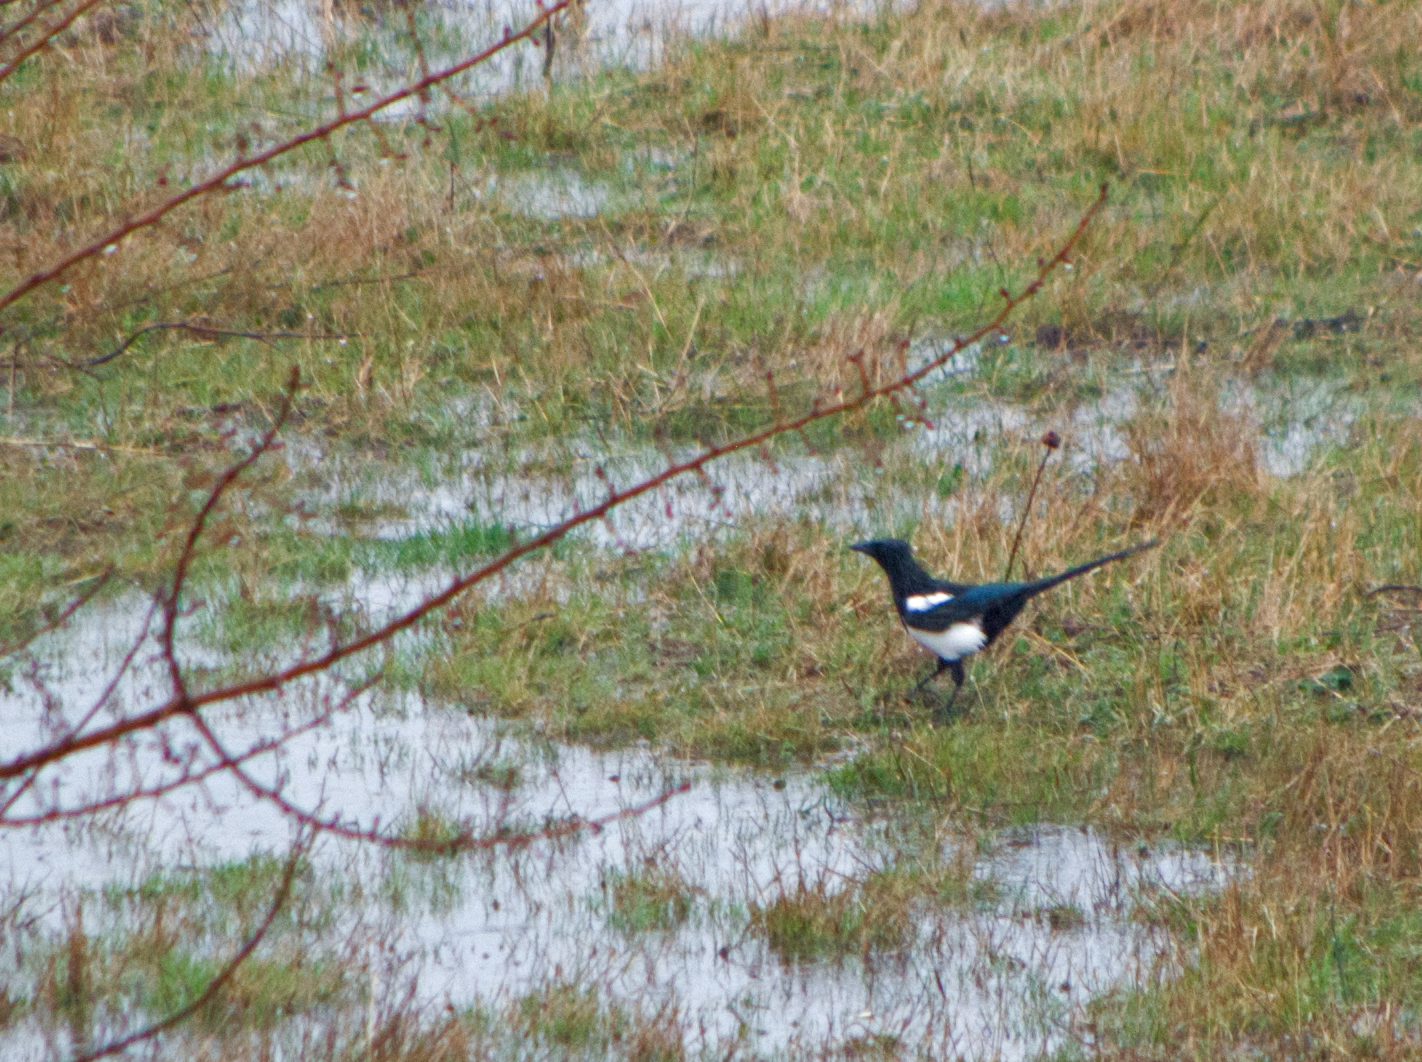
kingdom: Animalia
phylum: Chordata
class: Aves
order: Passeriformes
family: Corvidae
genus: Pica
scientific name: Pica pica
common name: Eurasian magpie
